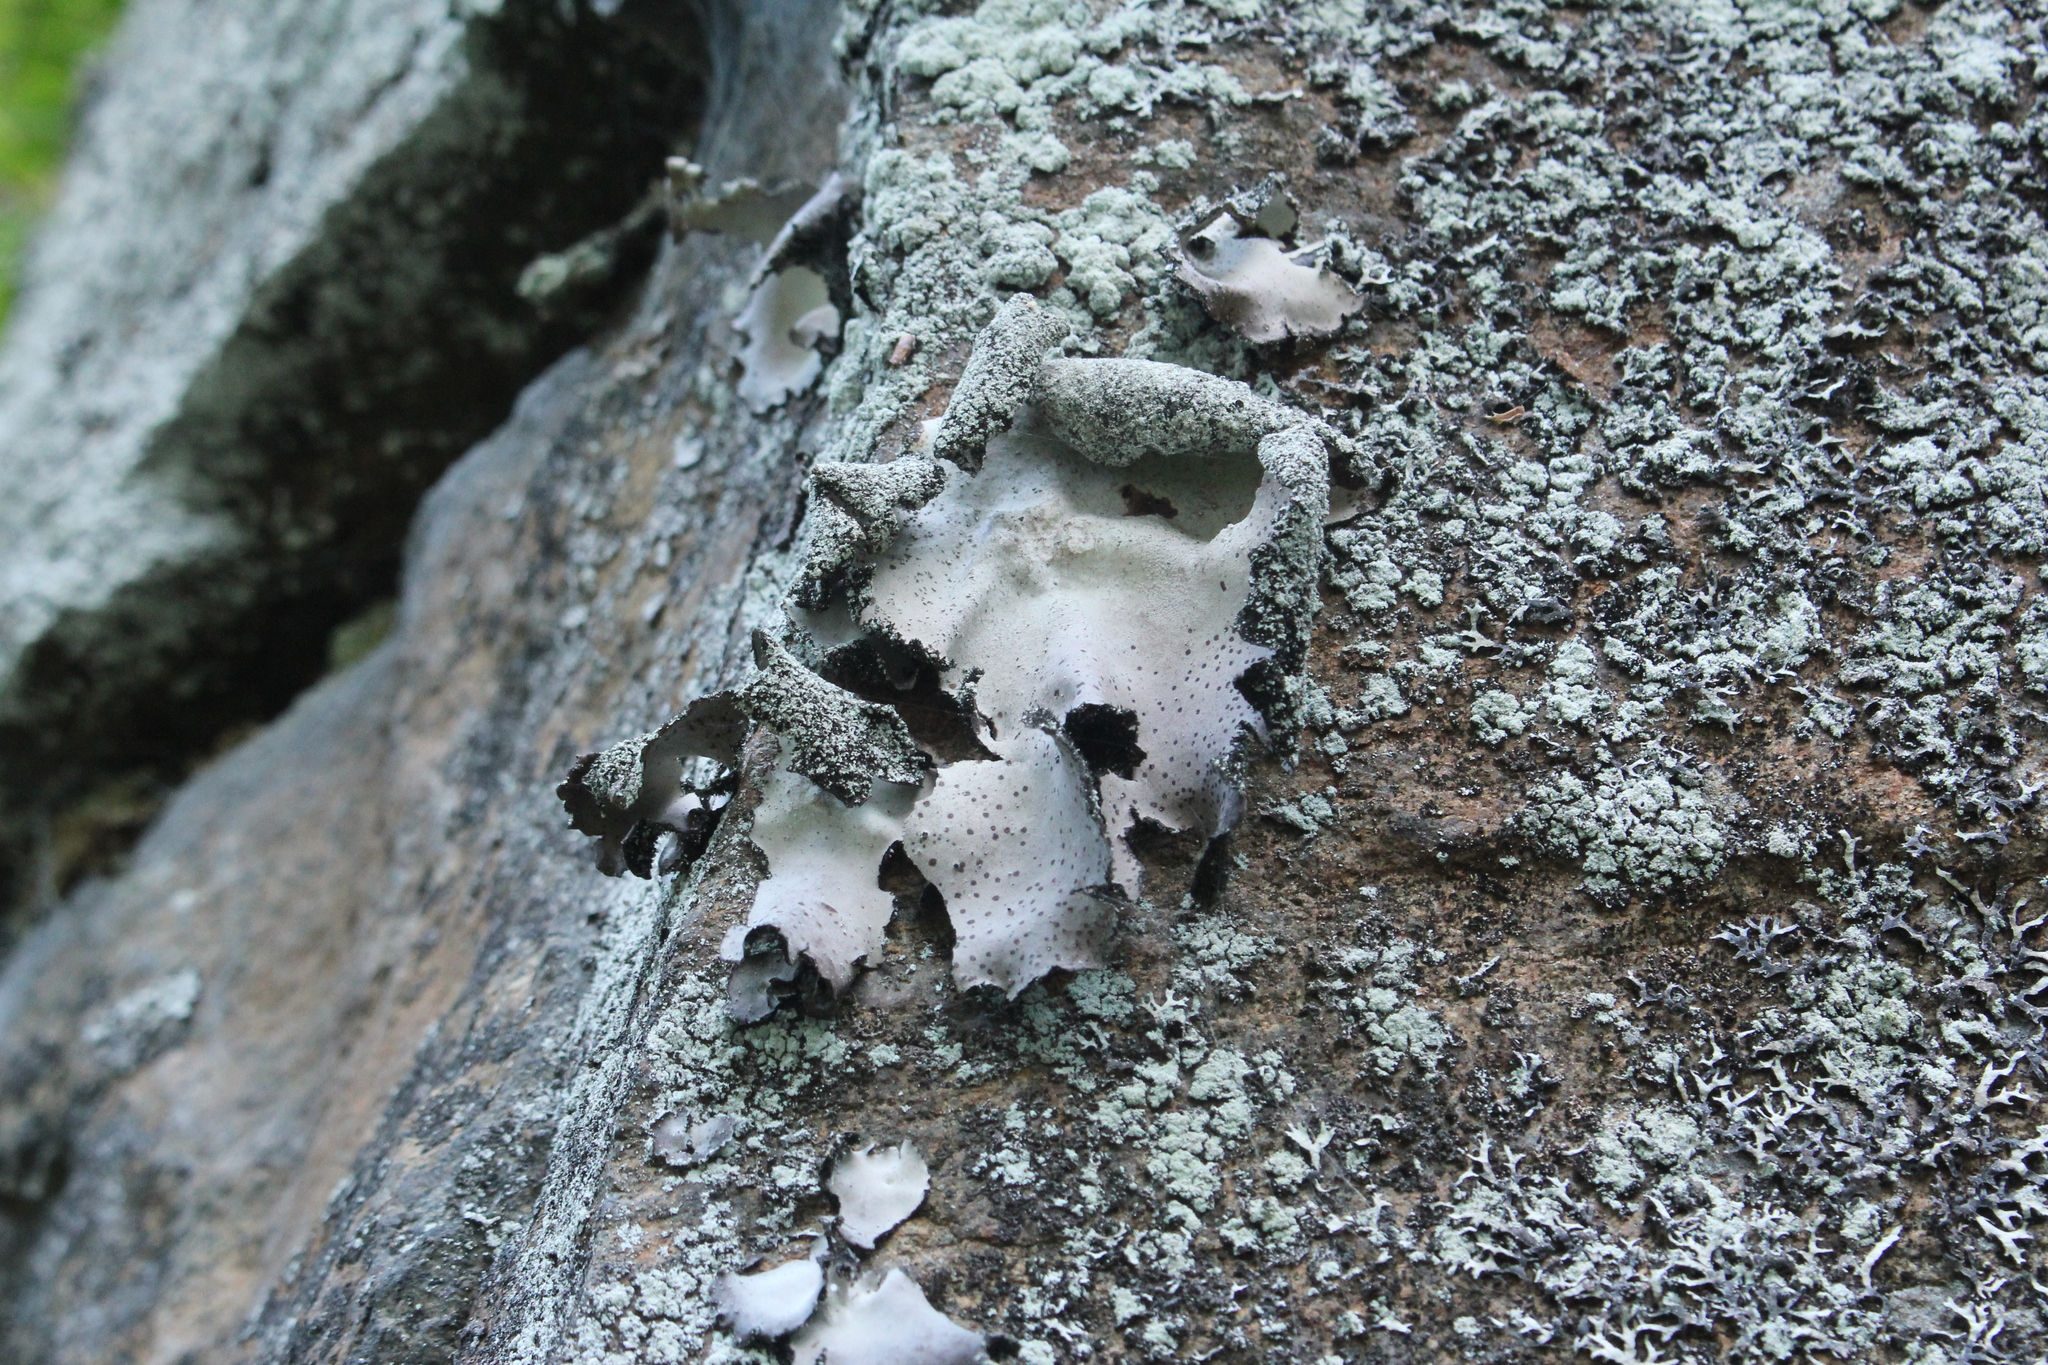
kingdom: Fungi
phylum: Ascomycota
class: Lecanoromycetes
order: Umbilicariales
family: Umbilicariaceae
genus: Umbilicaria
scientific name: Umbilicaria americana
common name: Frosted rock tripe
